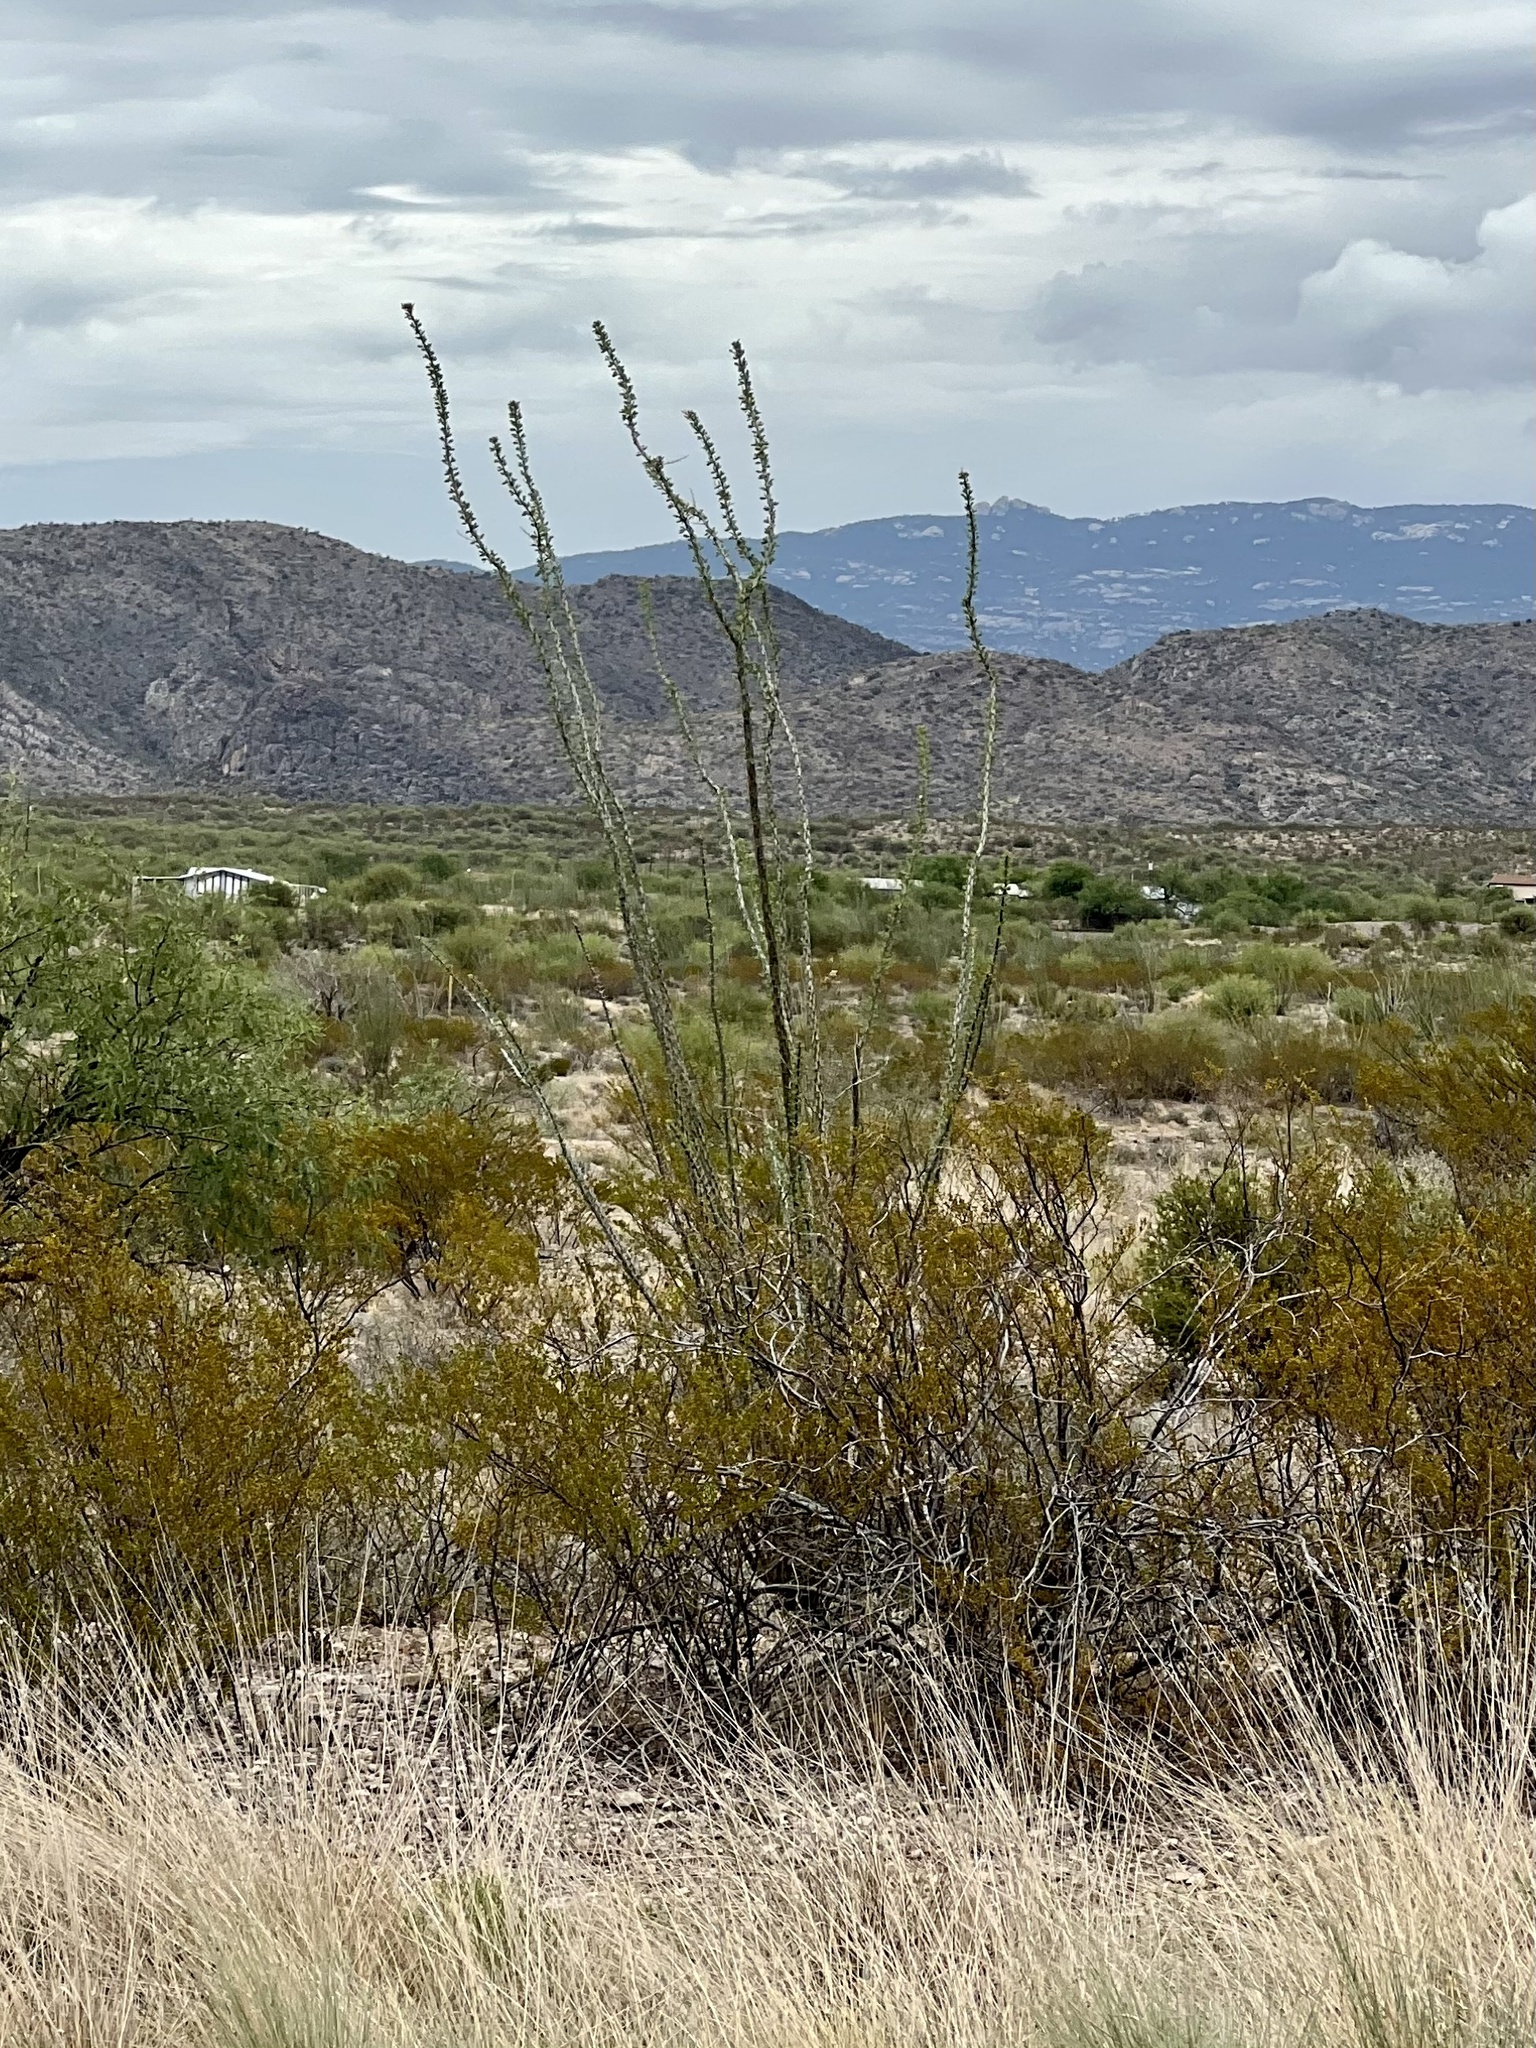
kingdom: Plantae
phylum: Tracheophyta
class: Magnoliopsida
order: Ericales
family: Fouquieriaceae
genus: Fouquieria
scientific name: Fouquieria splendens
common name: Vine-cactus
